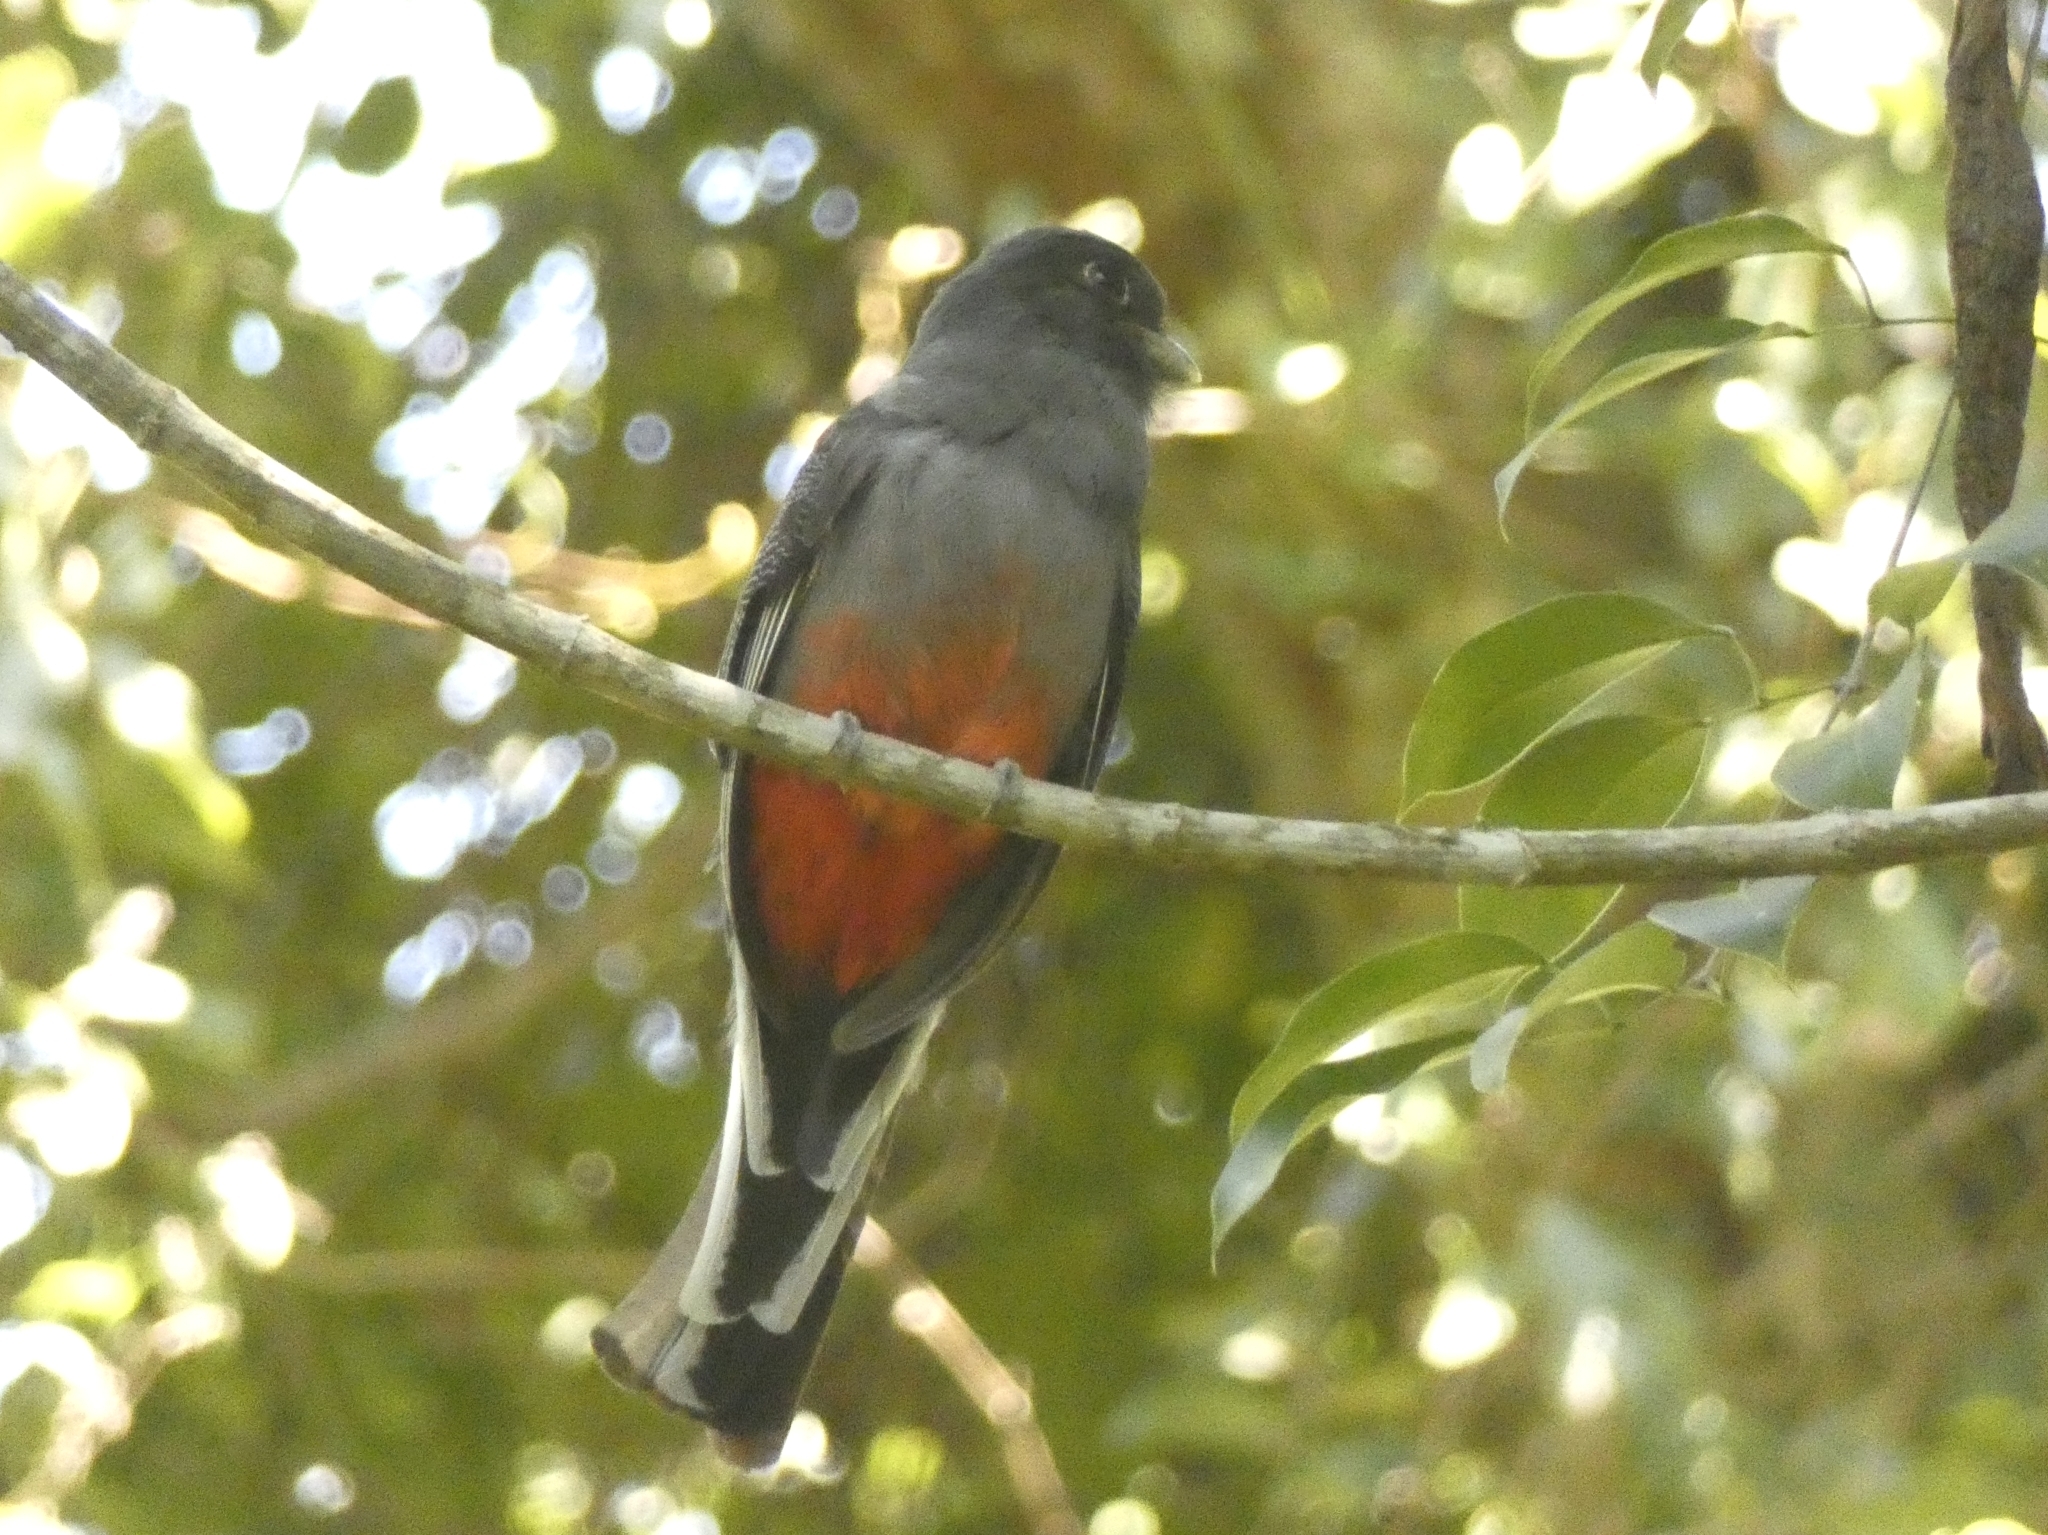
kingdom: Animalia
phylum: Chordata
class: Aves
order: Trogoniformes
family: Trogonidae
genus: Trogon
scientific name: Trogon surrucura
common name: Surucua trogon
